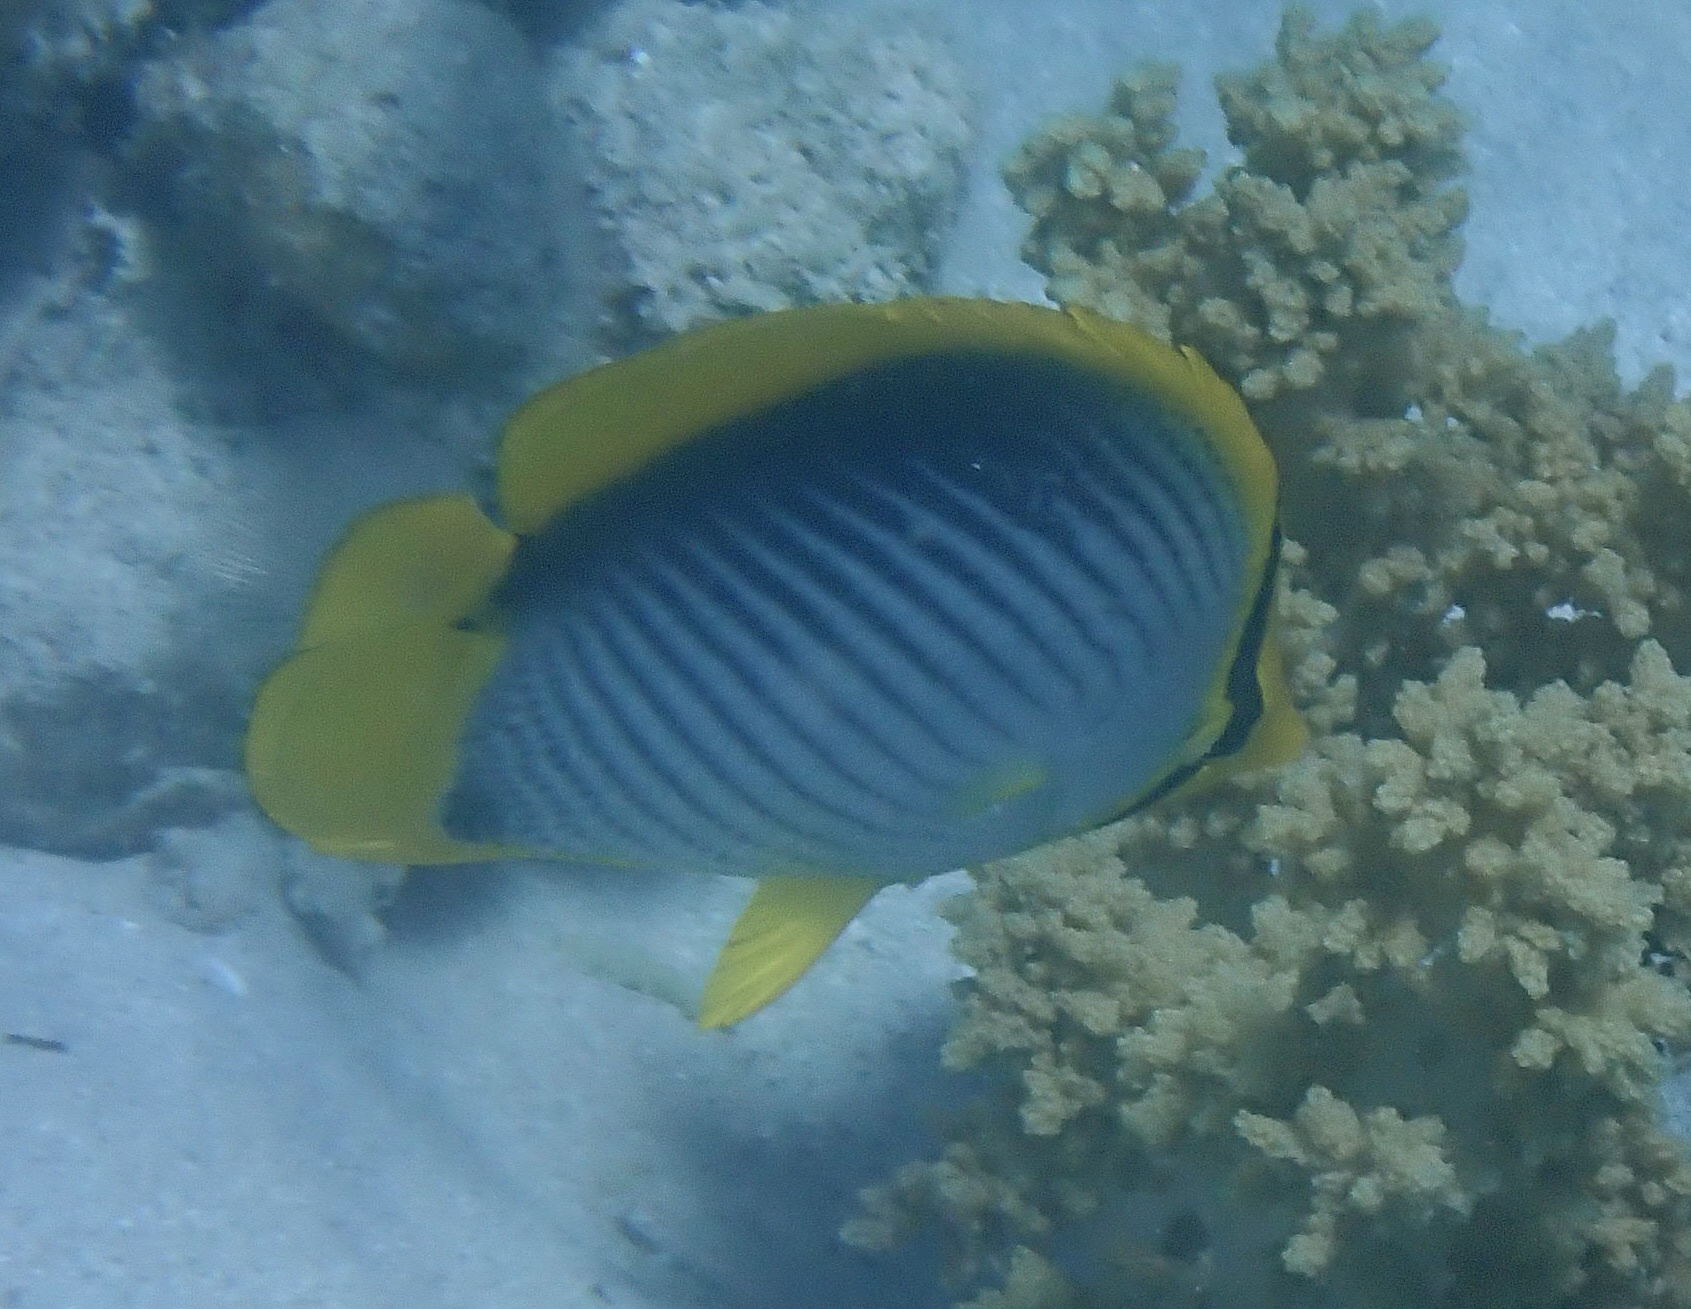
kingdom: Animalia
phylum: Chordata
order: Perciformes
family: Chaetodontidae
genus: Chaetodon
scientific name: Chaetodon melannotus
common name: Blackback butterflyfish
